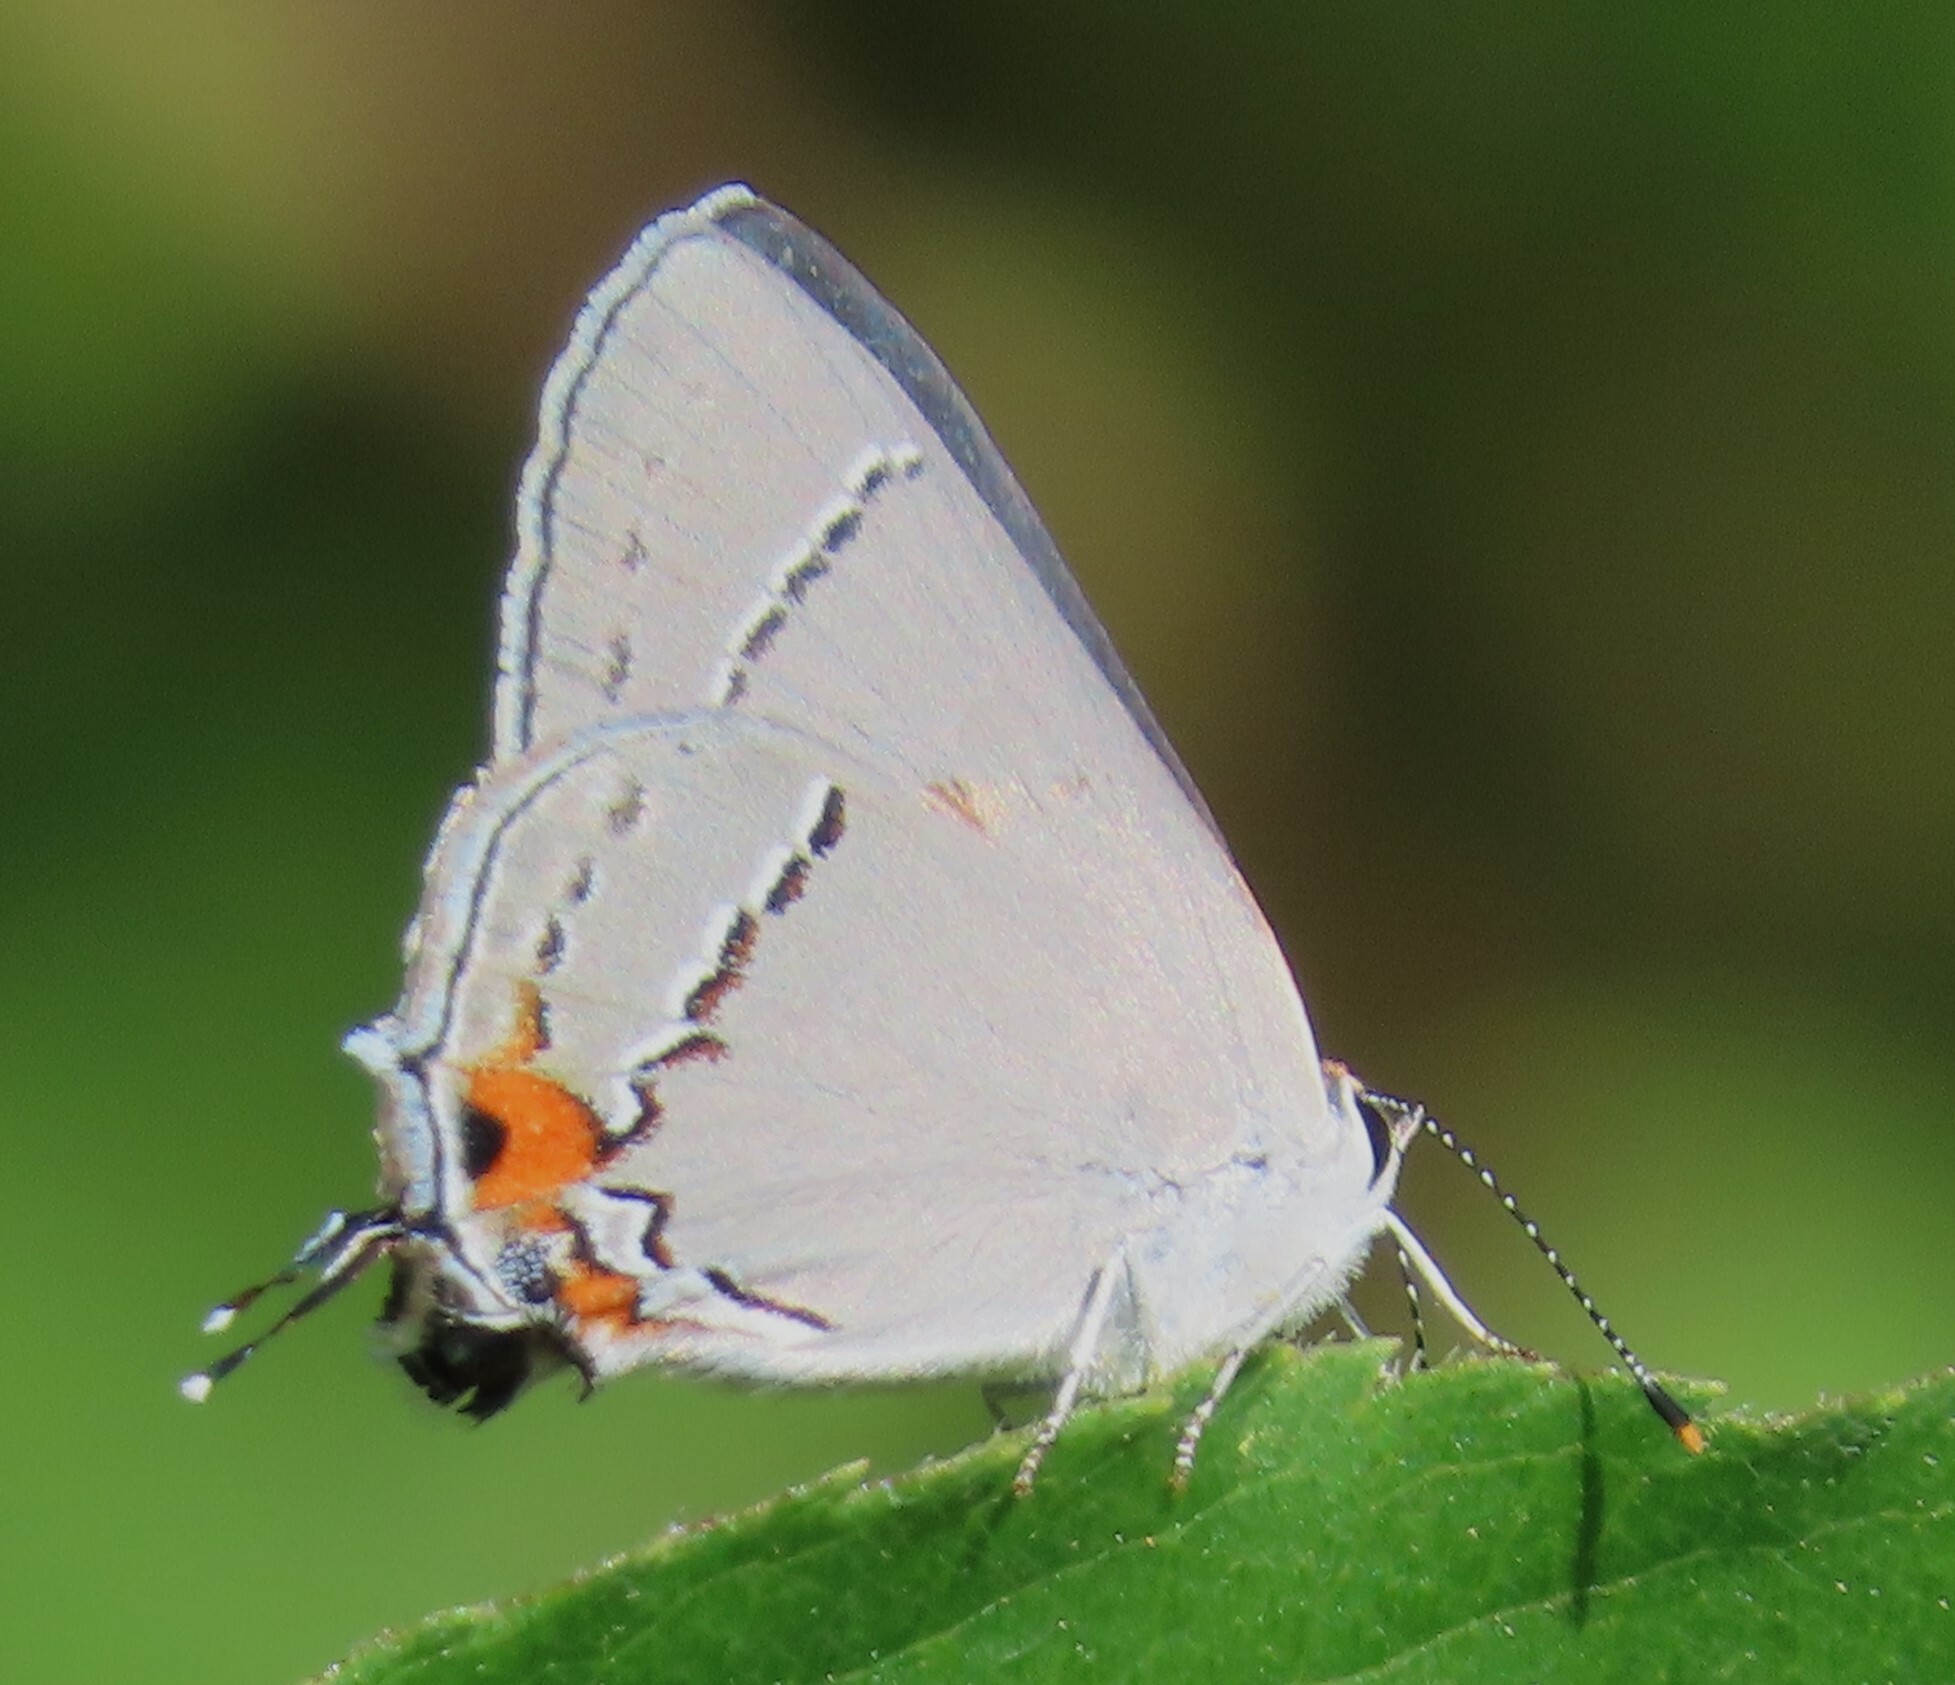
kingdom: Animalia
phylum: Arthropoda
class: Insecta
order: Lepidoptera
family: Lycaenidae
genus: Strymon
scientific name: Strymon melinus
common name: Gray hairstreak
